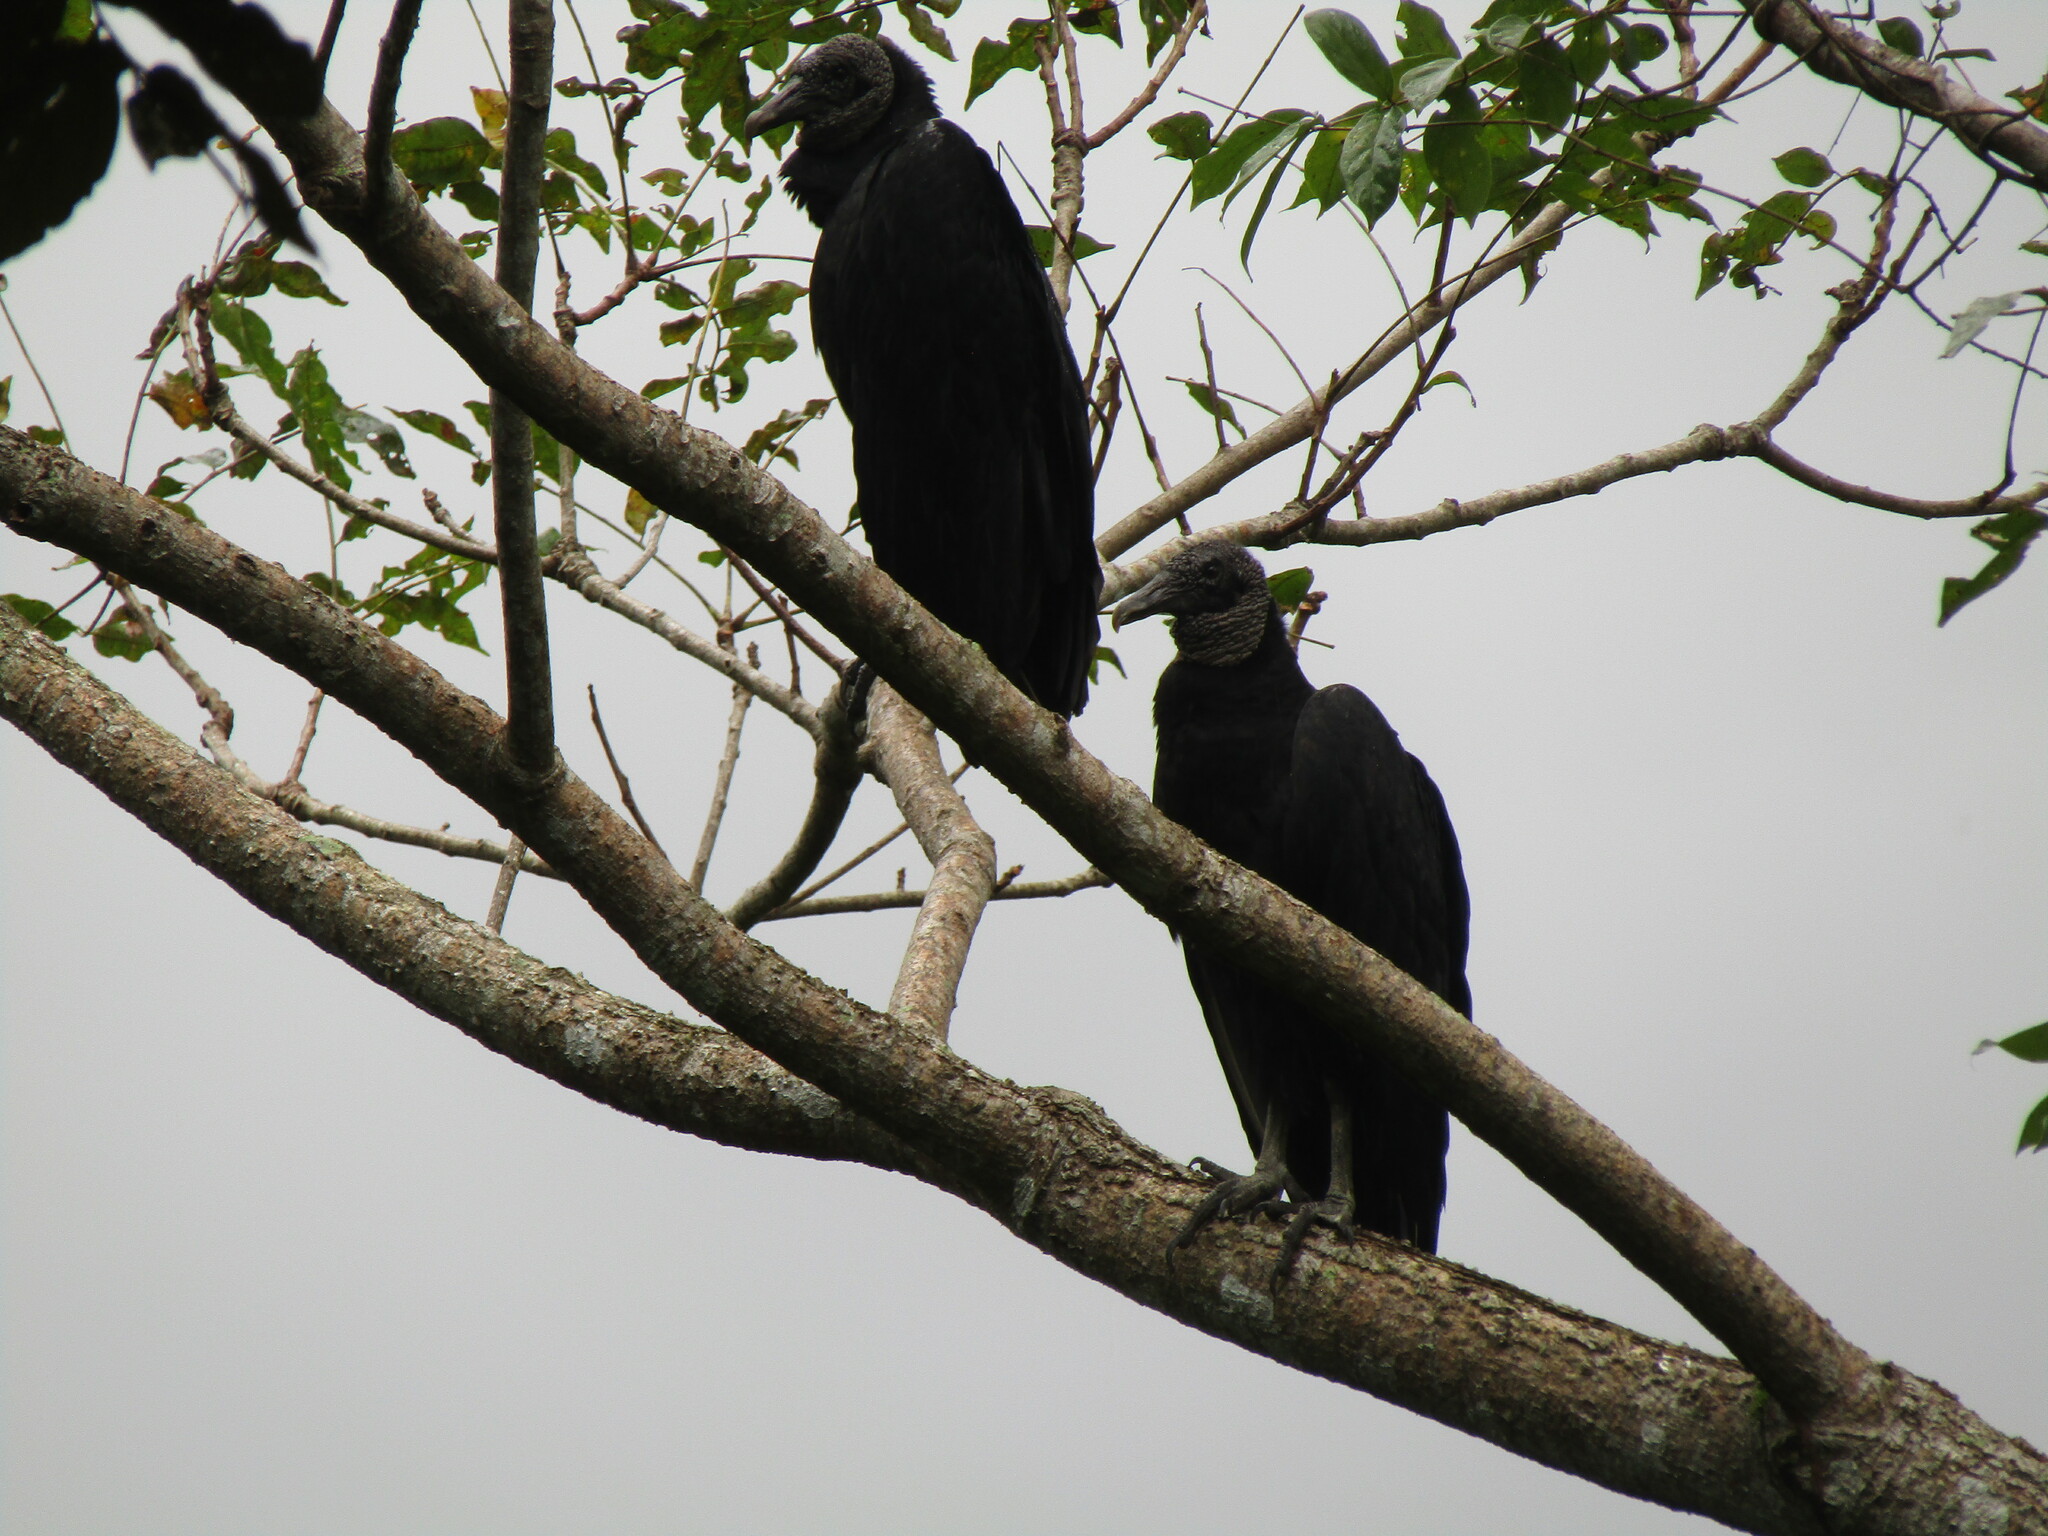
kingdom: Animalia
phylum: Chordata
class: Aves
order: Accipitriformes
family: Cathartidae
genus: Coragyps
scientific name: Coragyps atratus
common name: Black vulture
